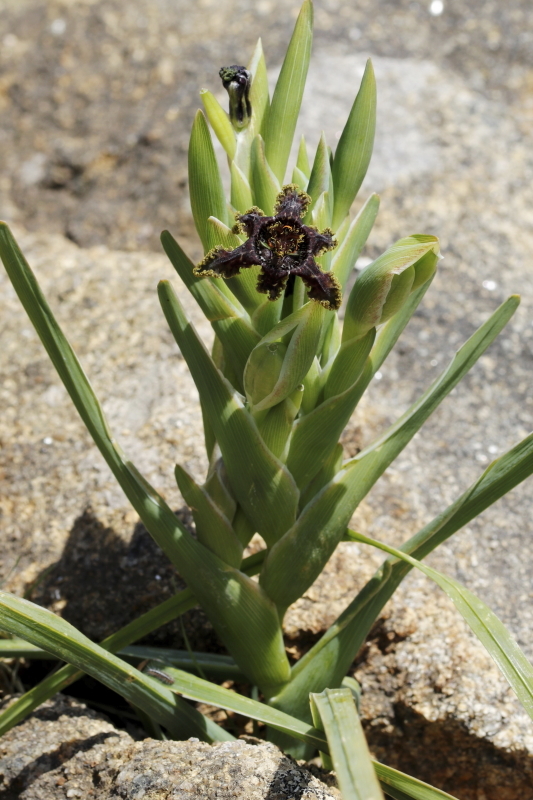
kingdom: Plantae
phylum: Tracheophyta
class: Liliopsida
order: Asparagales
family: Iridaceae
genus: Ferraria
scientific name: Ferraria crispa
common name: Black-flag
